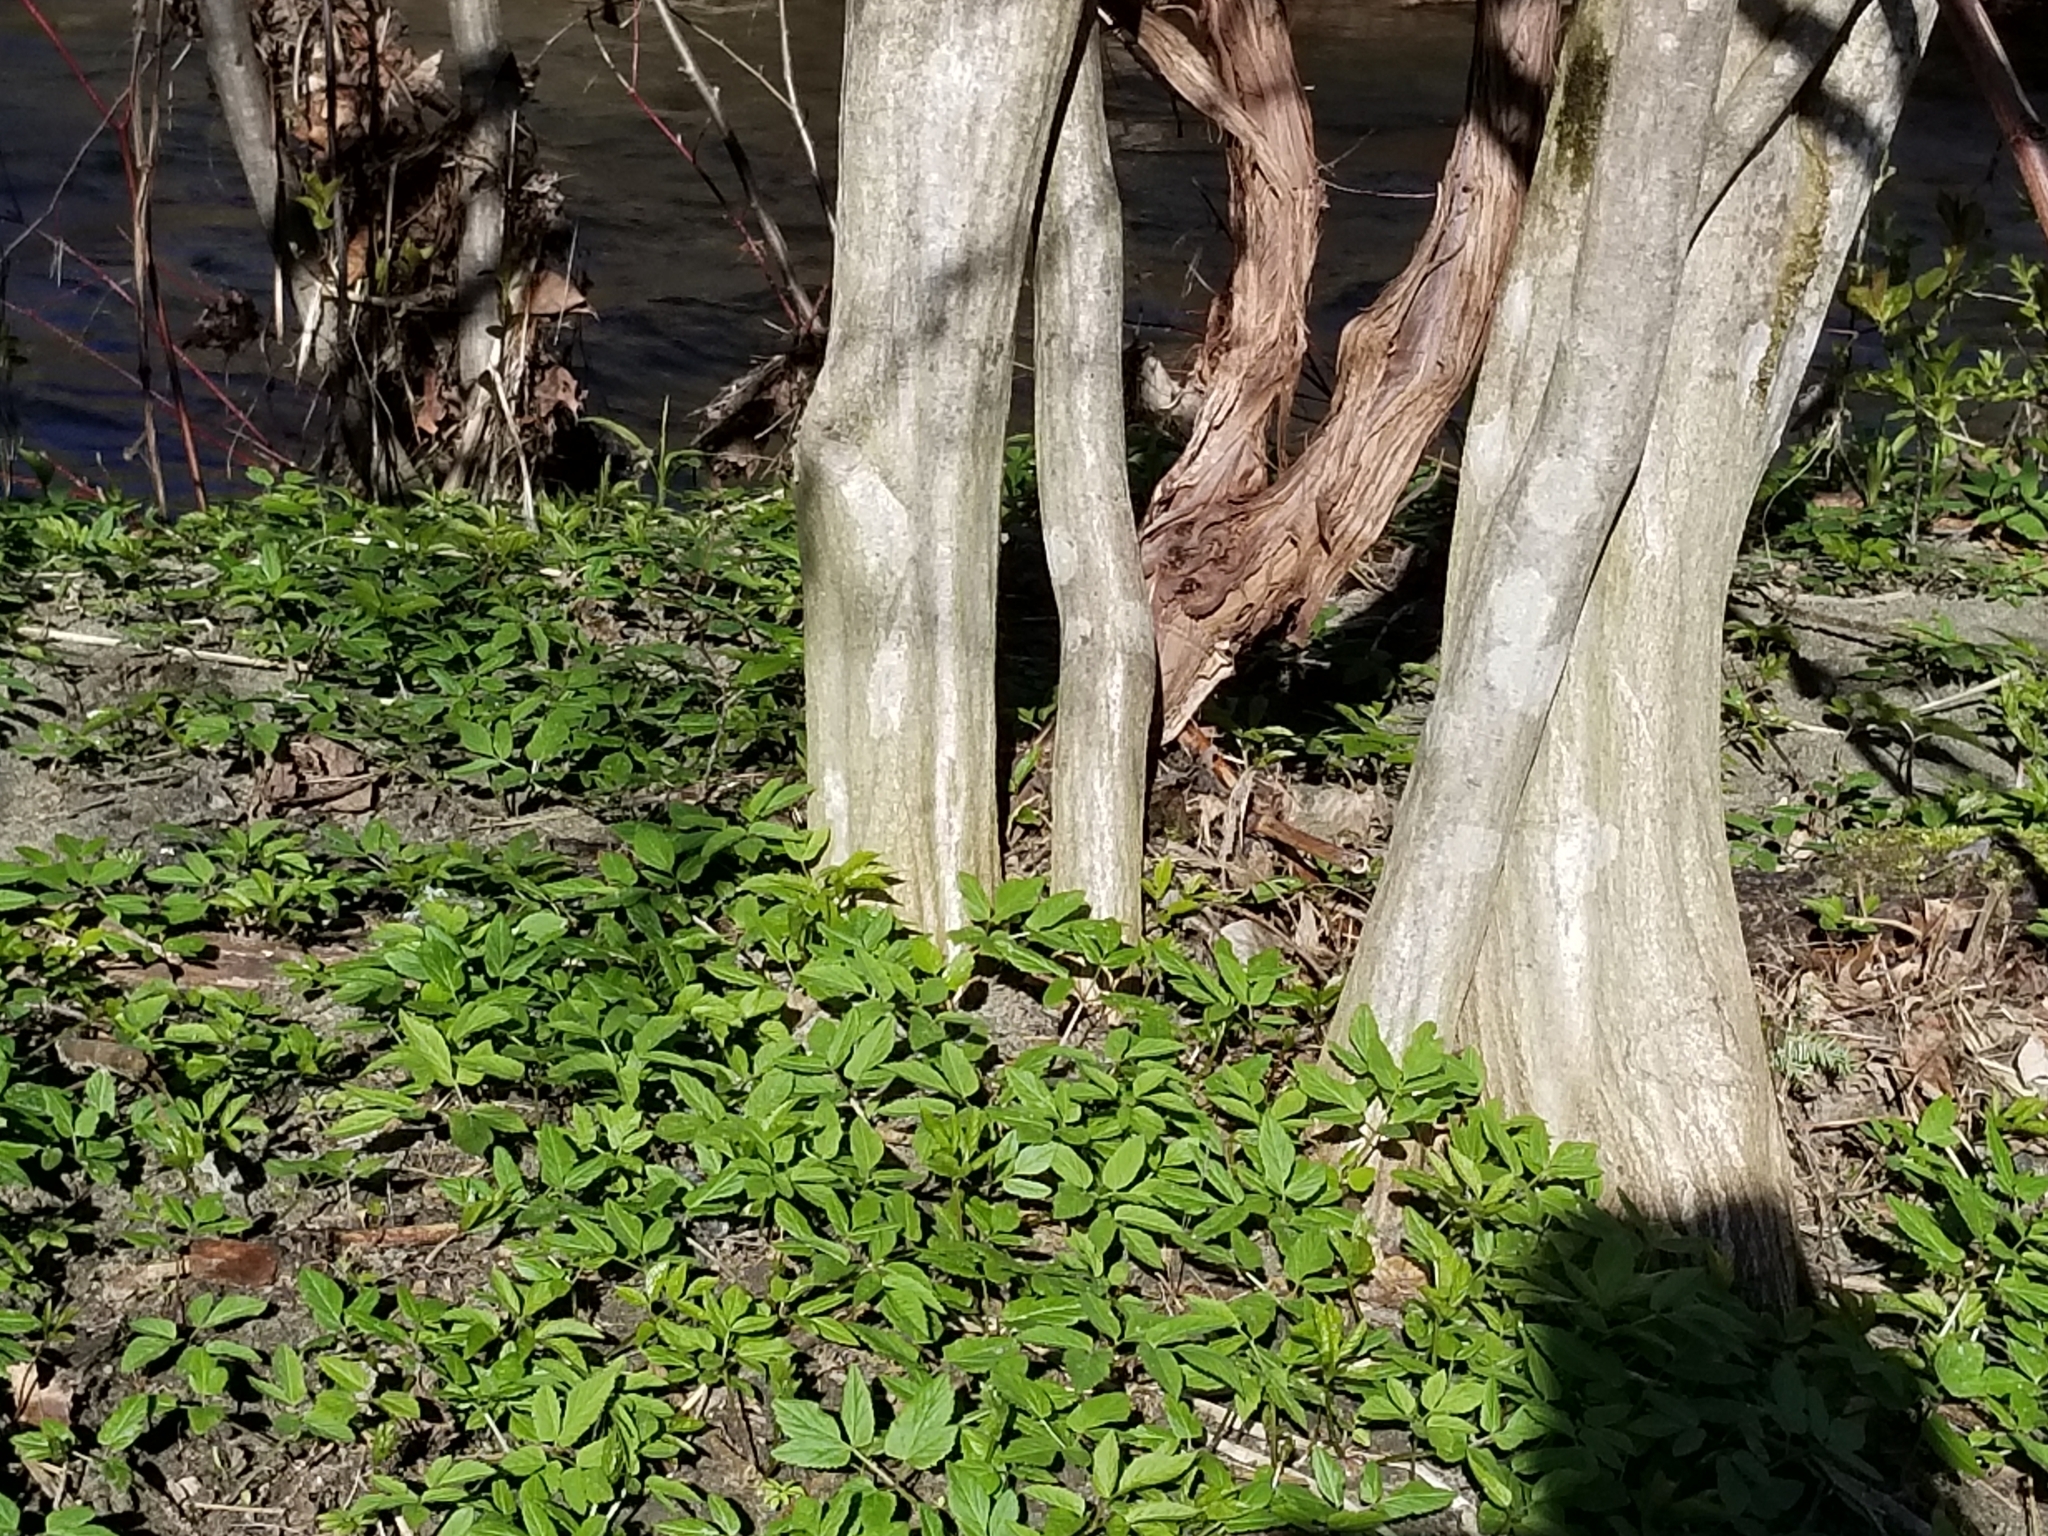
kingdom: Plantae
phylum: Tracheophyta
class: Magnoliopsida
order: Apiales
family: Apiaceae
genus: Aegopodium
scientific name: Aegopodium podagraria
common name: Ground-elder
